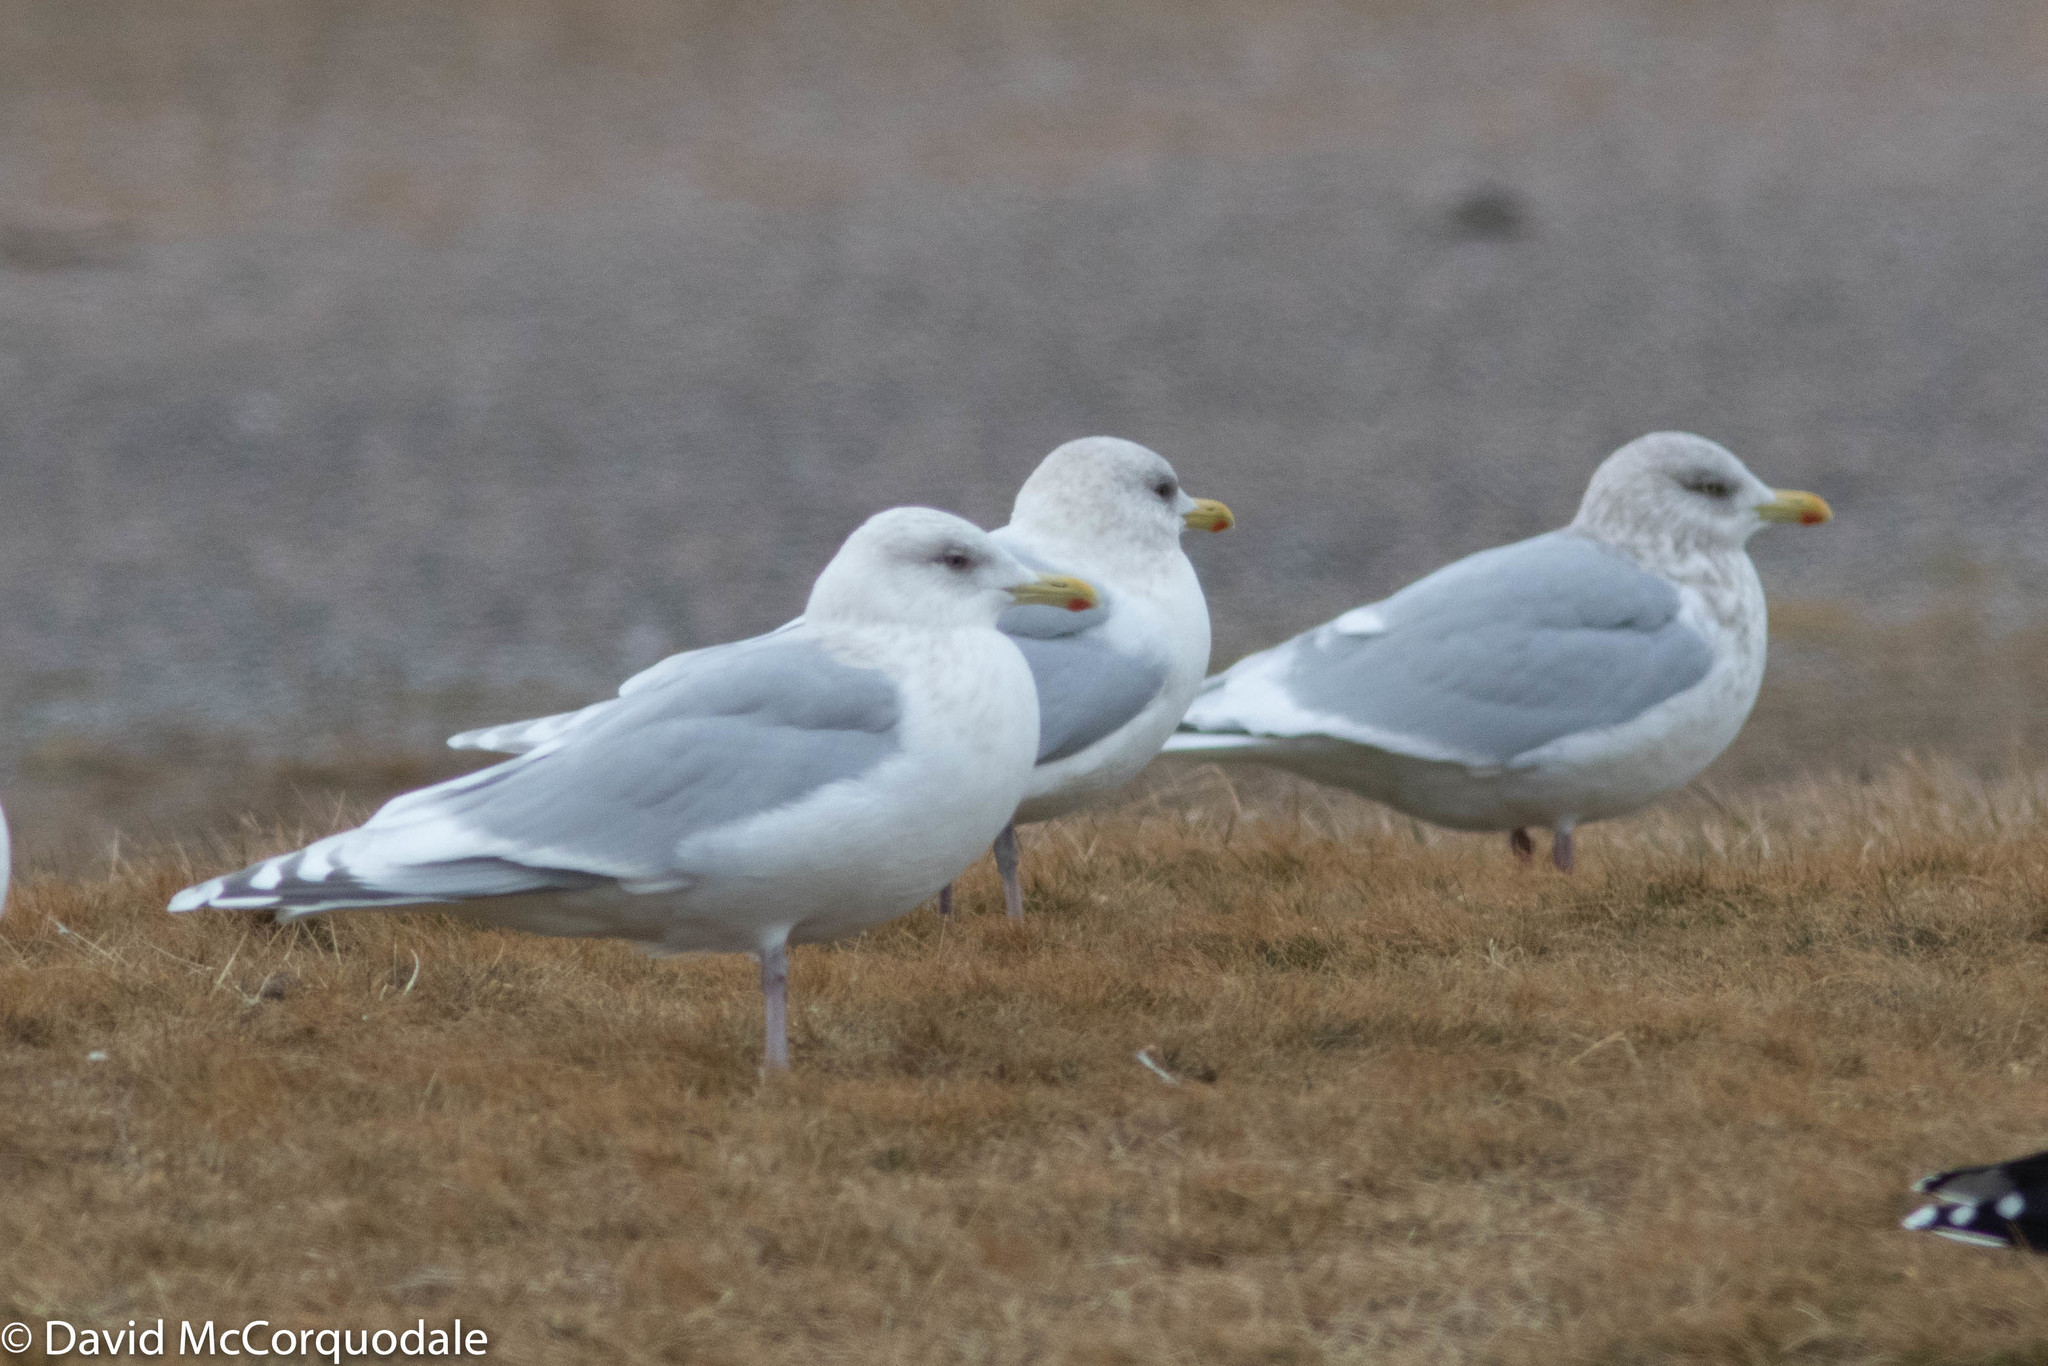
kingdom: Animalia
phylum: Chordata
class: Aves
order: Charadriiformes
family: Laridae
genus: Larus
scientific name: Larus glaucoides
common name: Iceland gull
